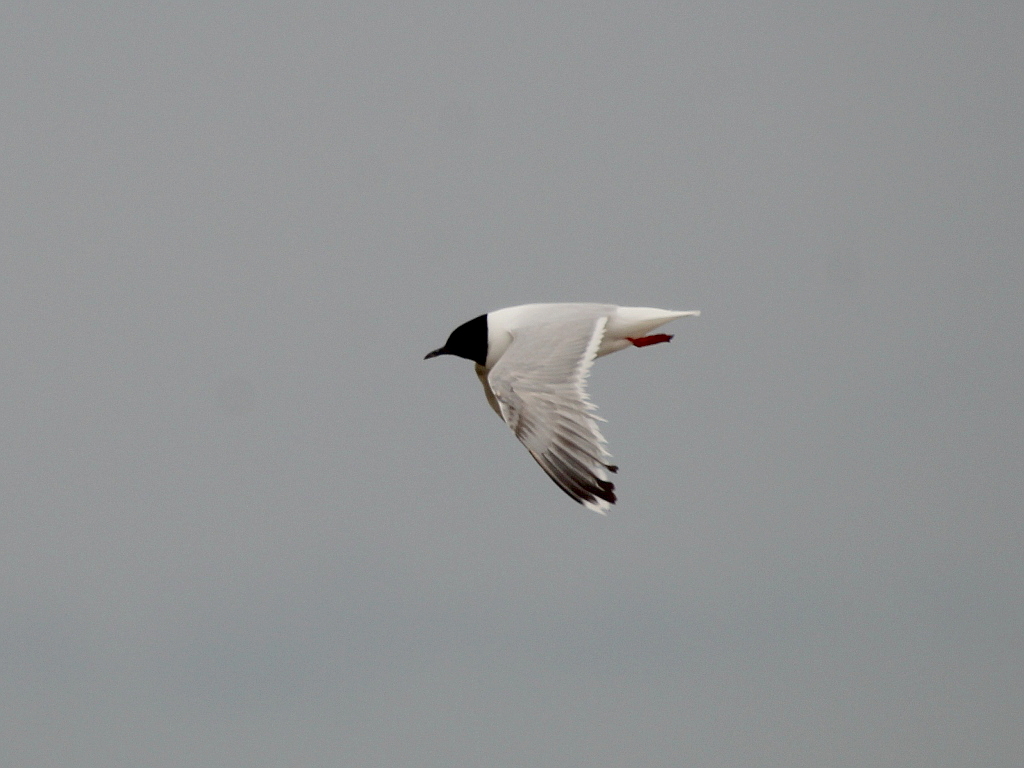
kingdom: Animalia
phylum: Chordata
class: Aves
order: Charadriiformes
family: Laridae
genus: Hydrocoloeus
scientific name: Hydrocoloeus minutus
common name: Little gull
